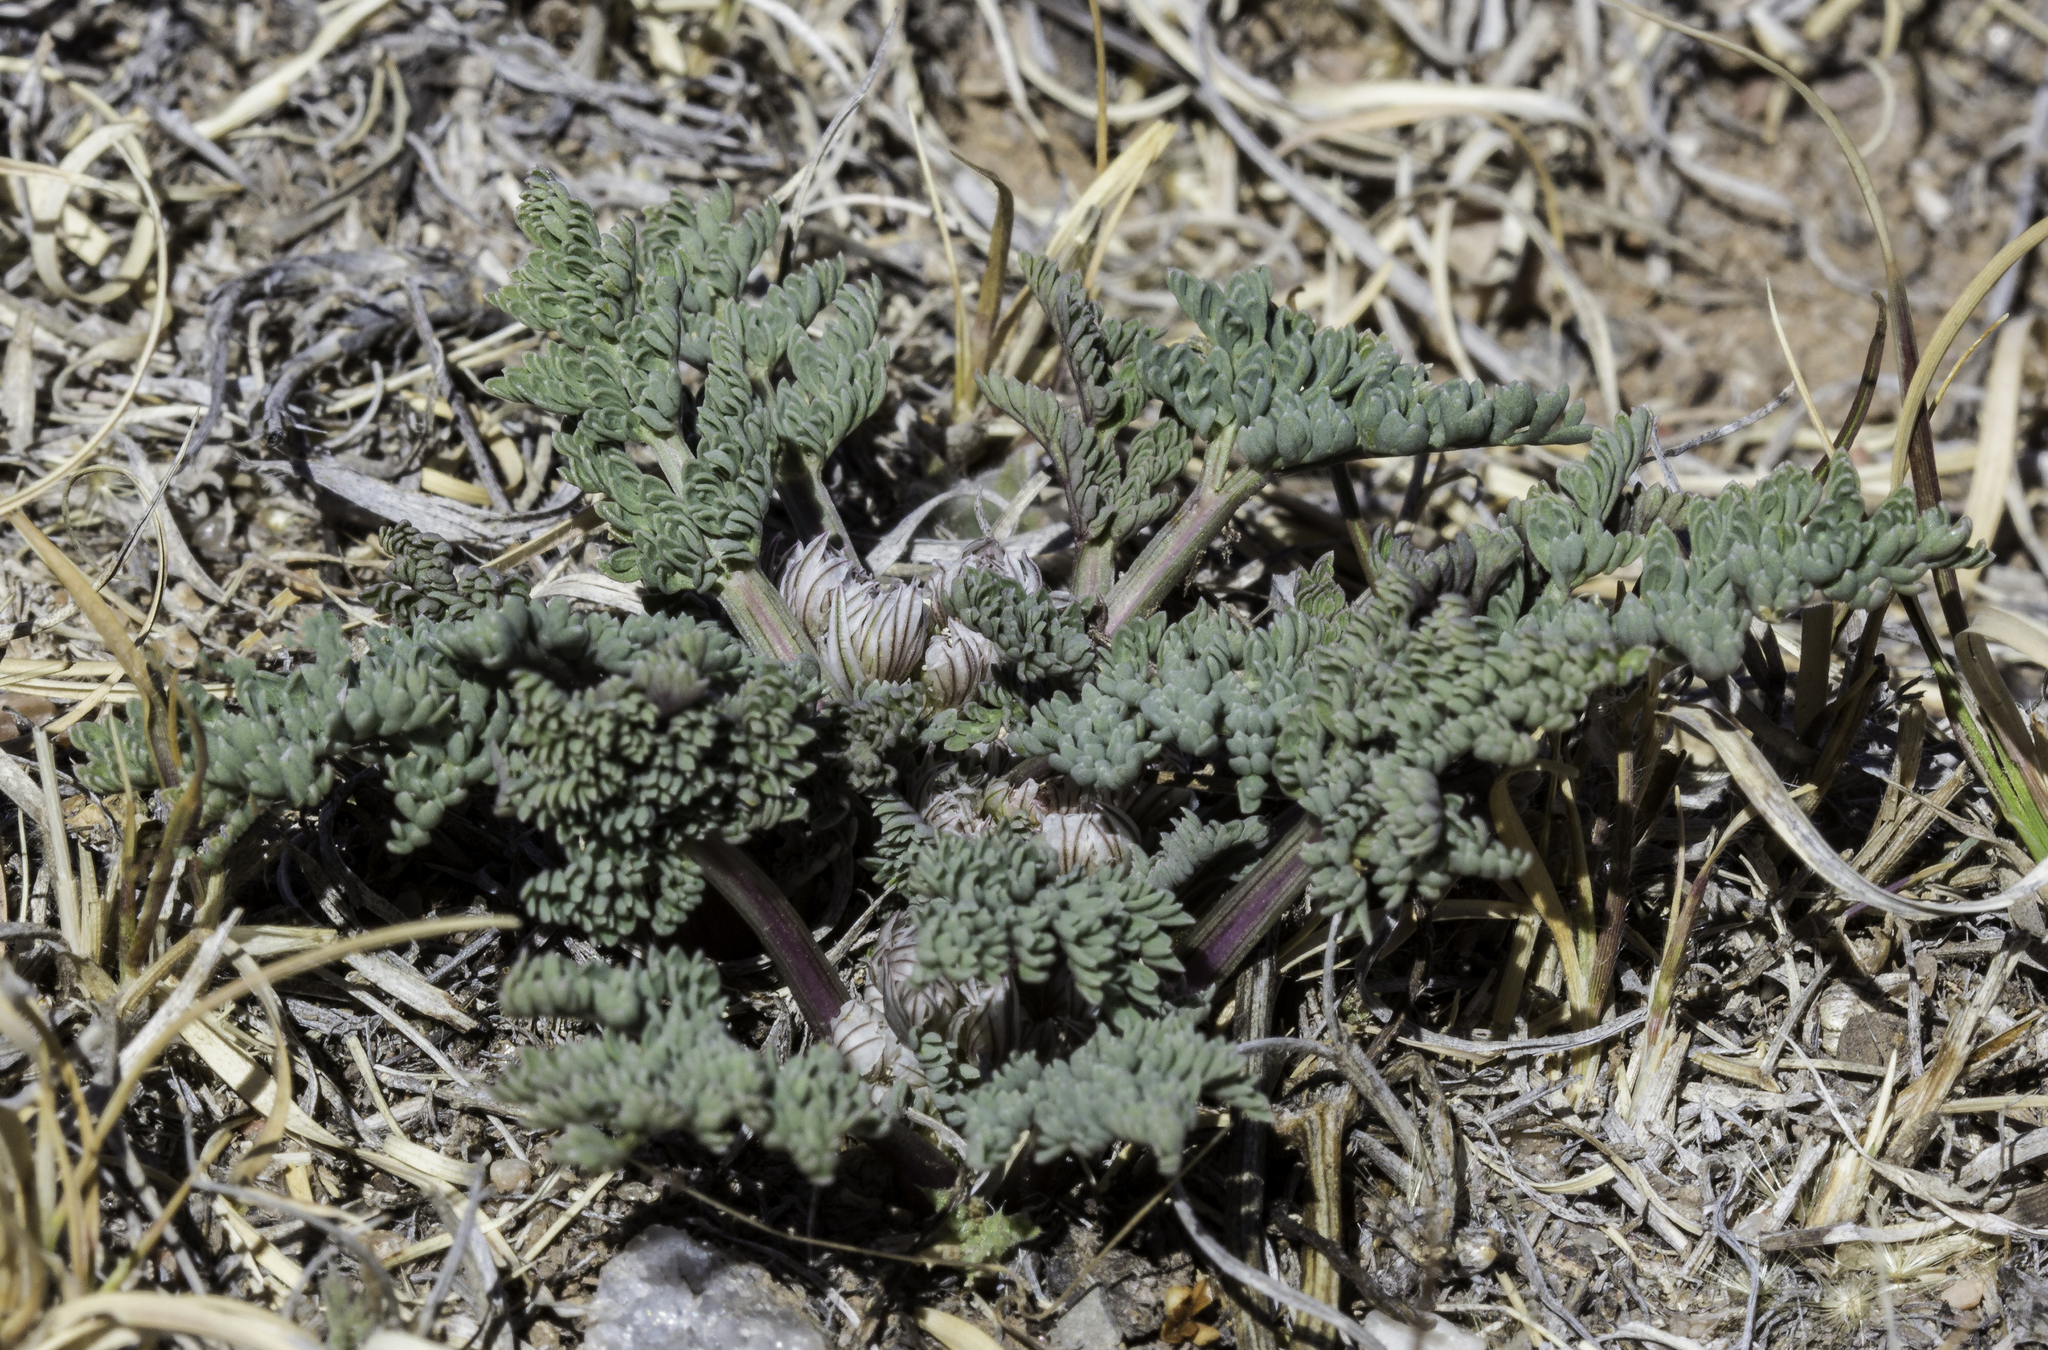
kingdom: Plantae
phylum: Tracheophyta
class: Magnoliopsida
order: Apiales
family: Apiaceae
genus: Vesper
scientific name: Vesper constancei
